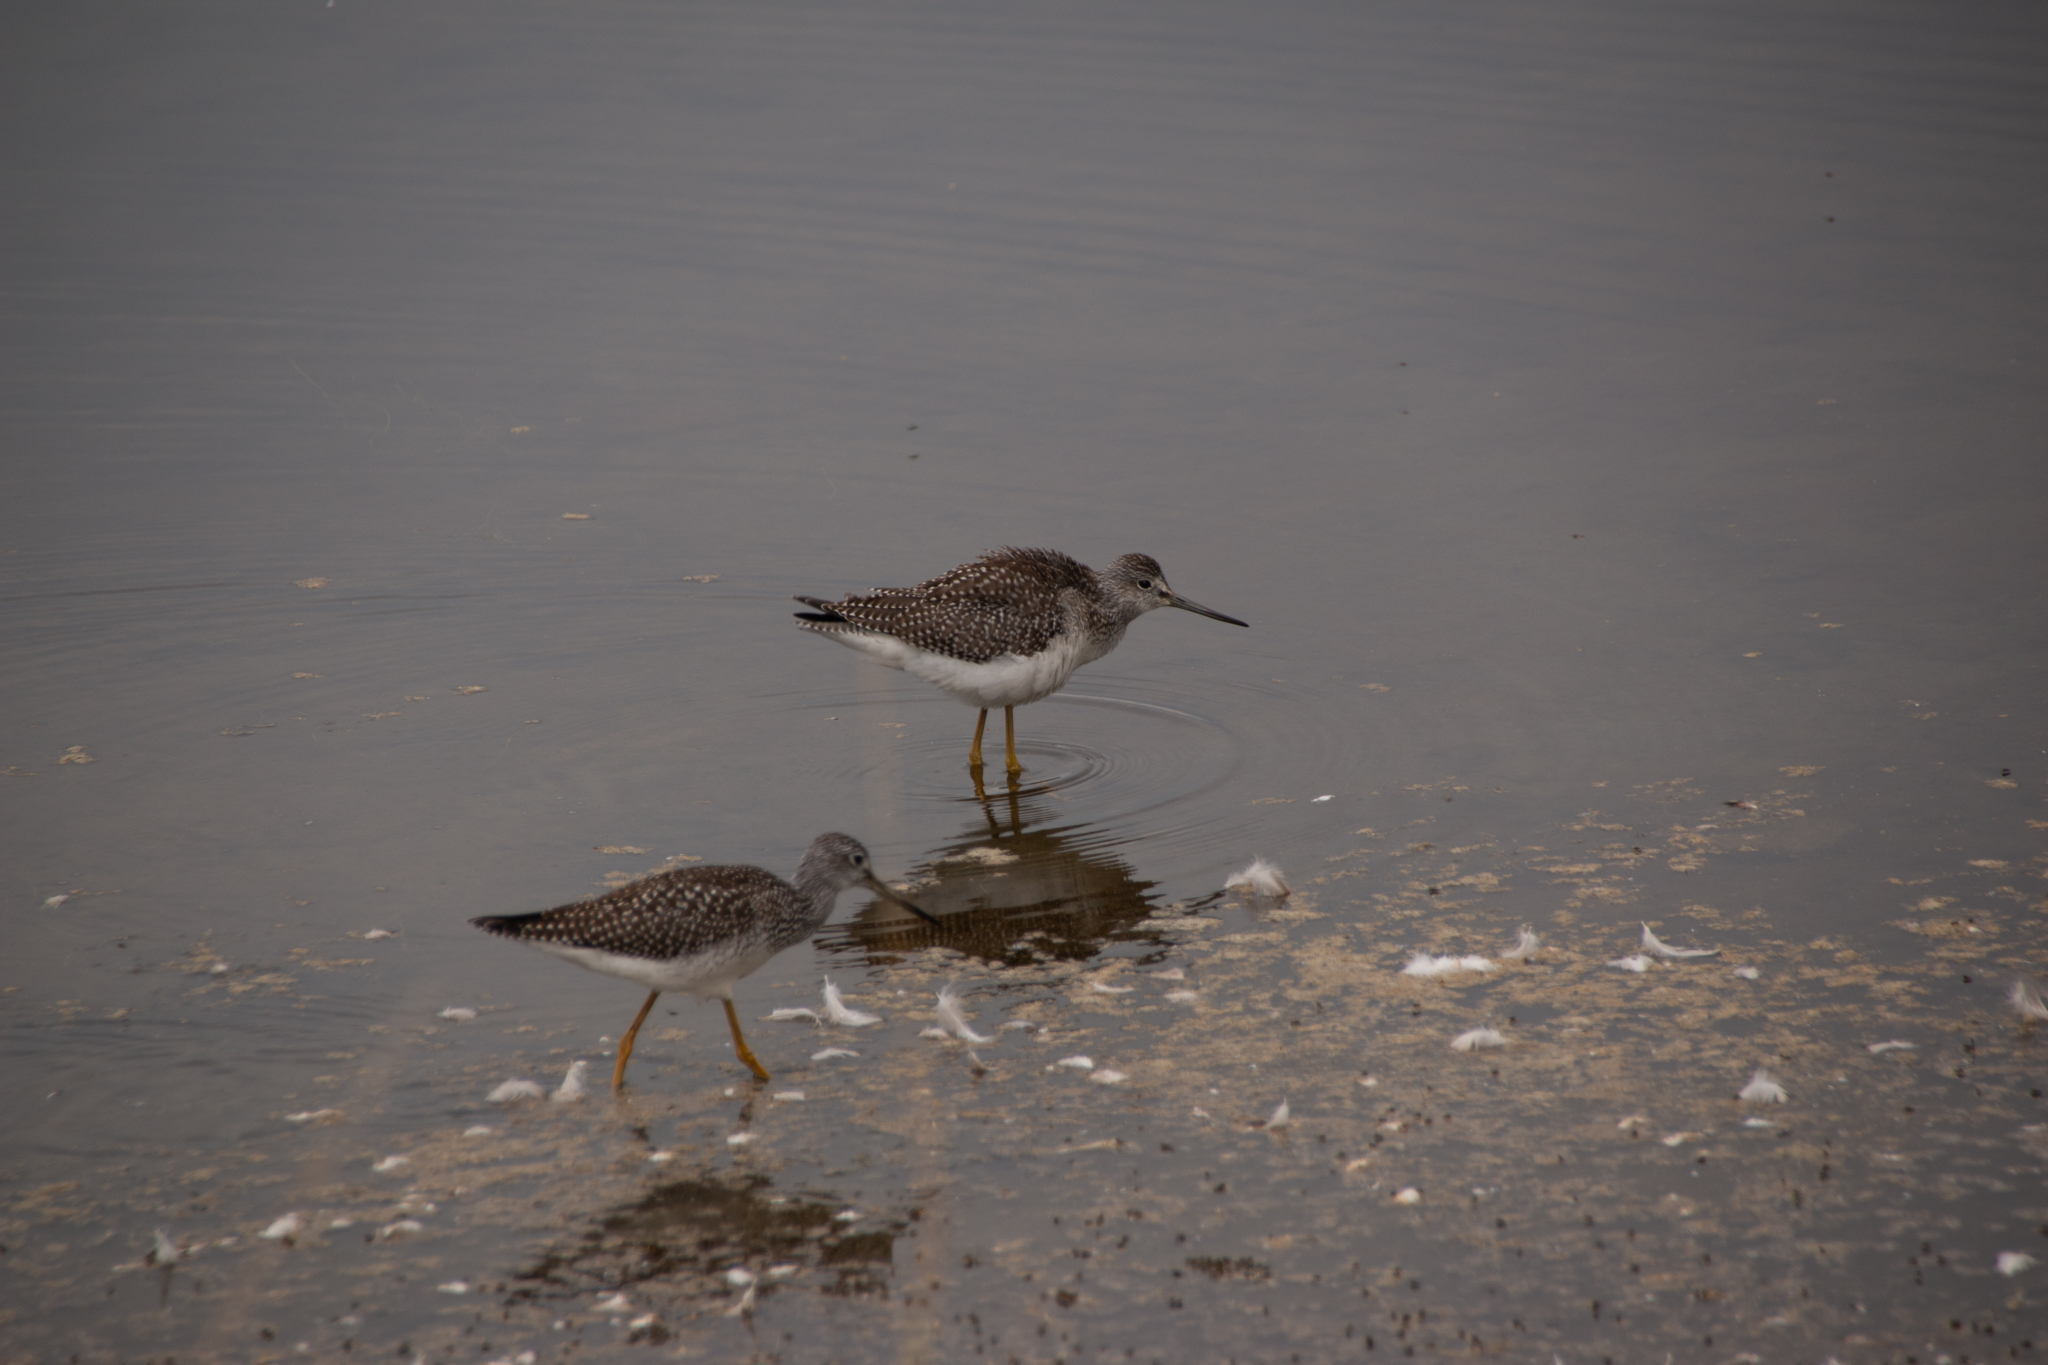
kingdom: Animalia
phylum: Chordata
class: Aves
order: Charadriiformes
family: Scolopacidae
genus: Tringa
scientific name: Tringa melanoleuca
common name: Greater yellowlegs
